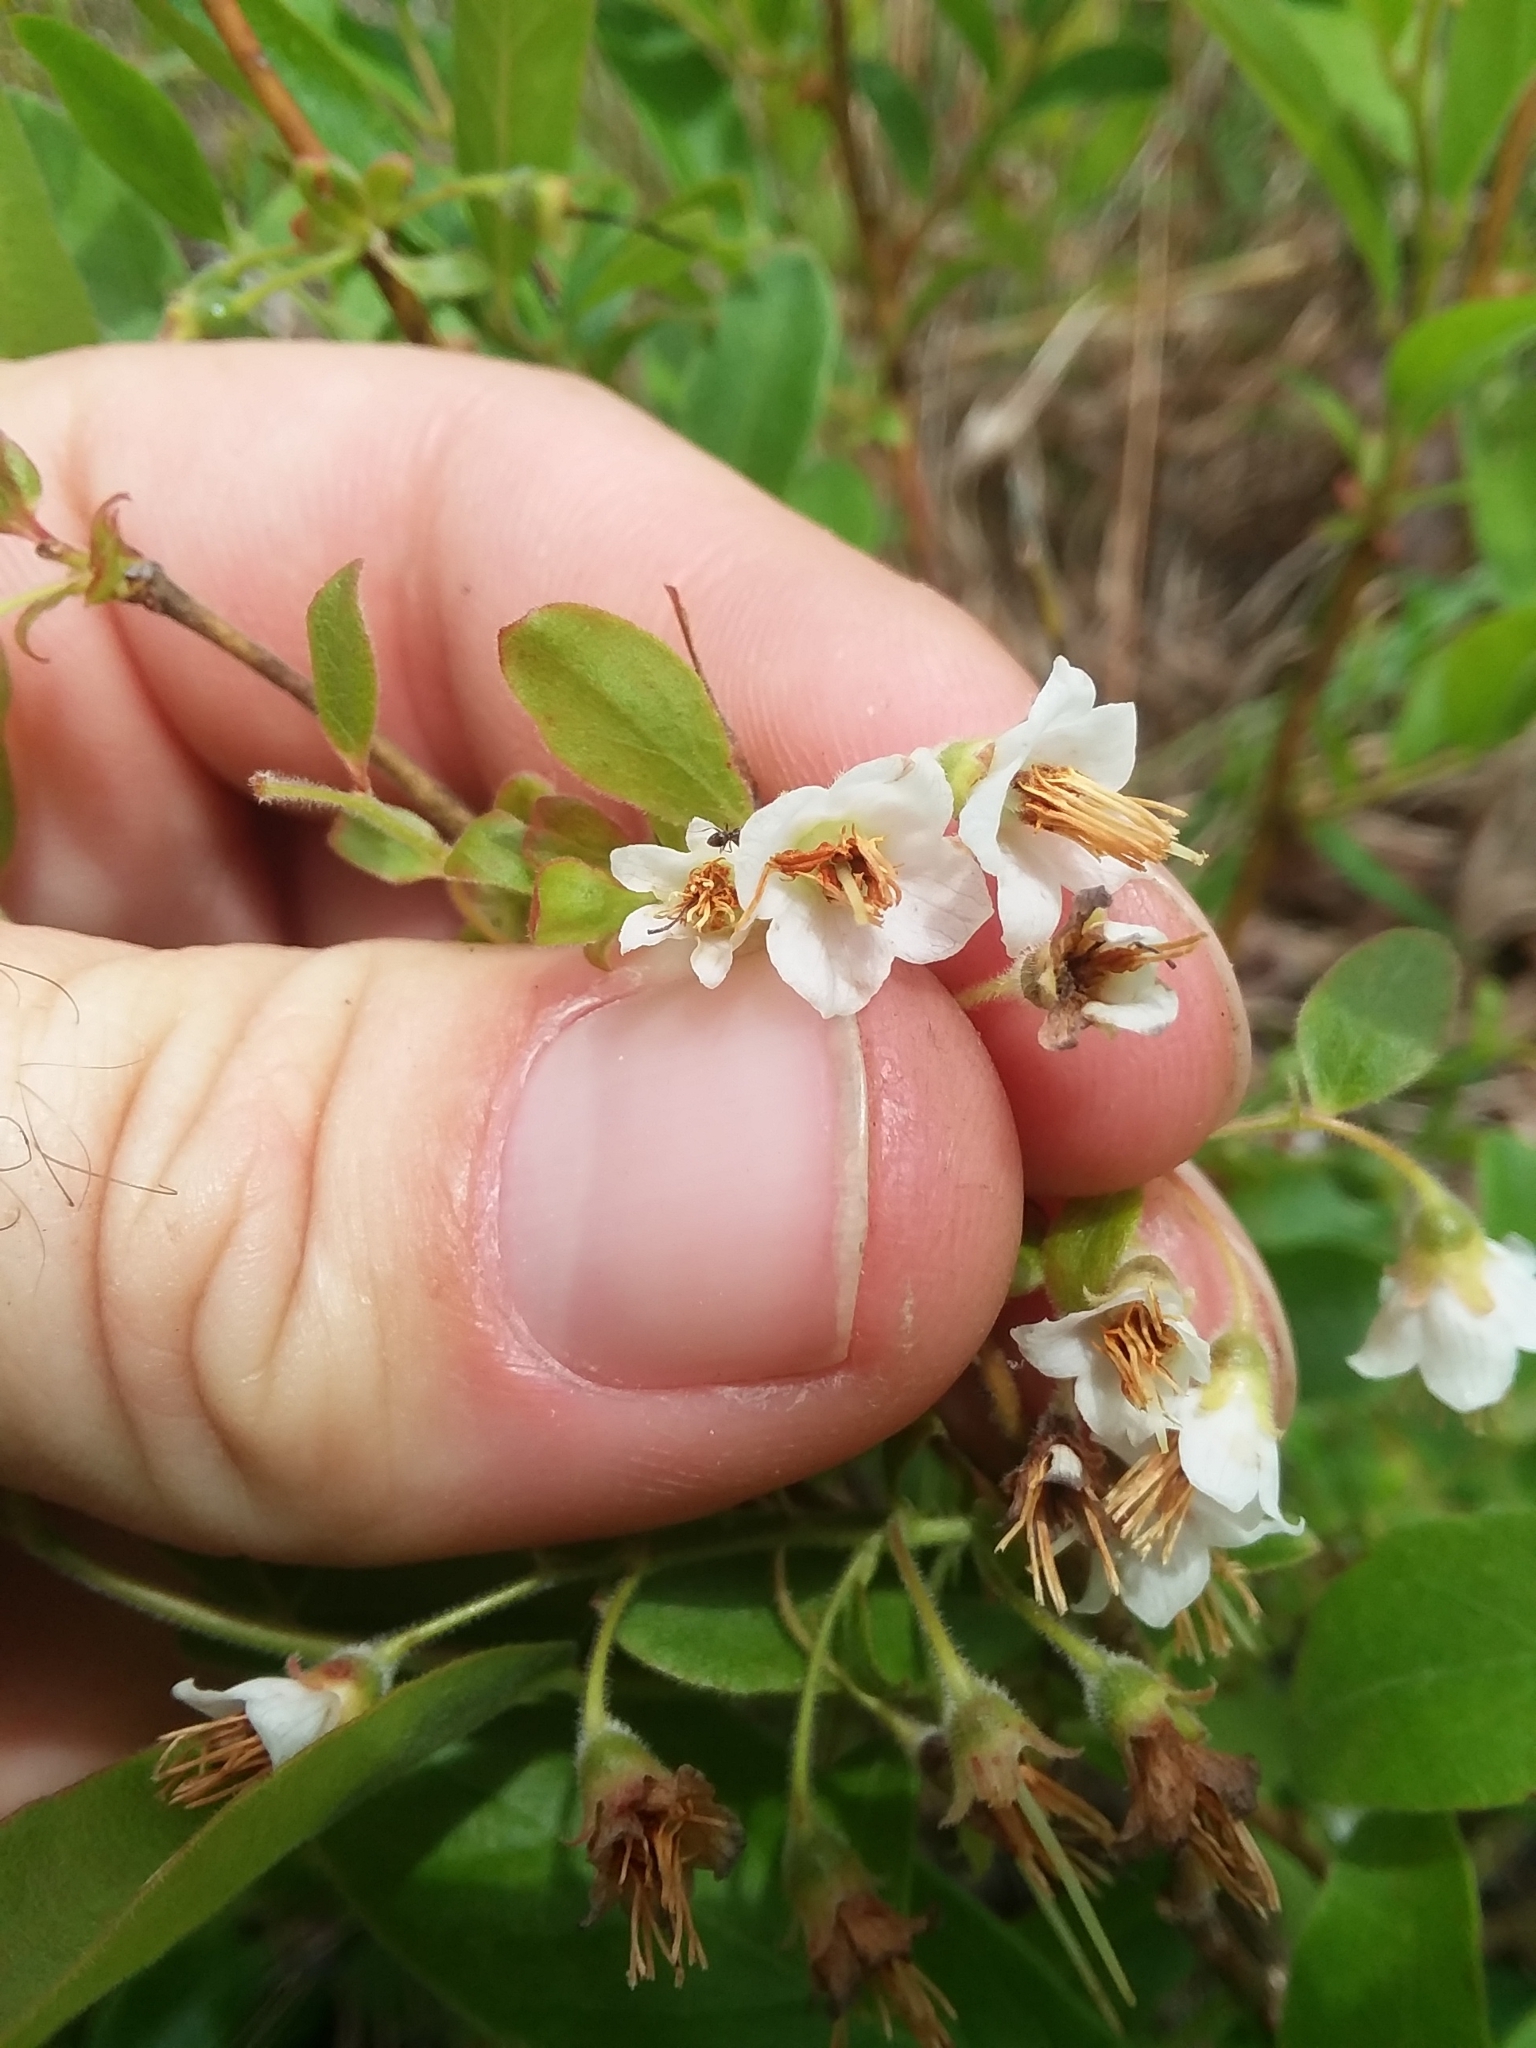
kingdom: Plantae
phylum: Tracheophyta
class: Magnoliopsida
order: Ericales
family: Ericaceae
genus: Vaccinium
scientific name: Vaccinium stamineum
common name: Deerberry
